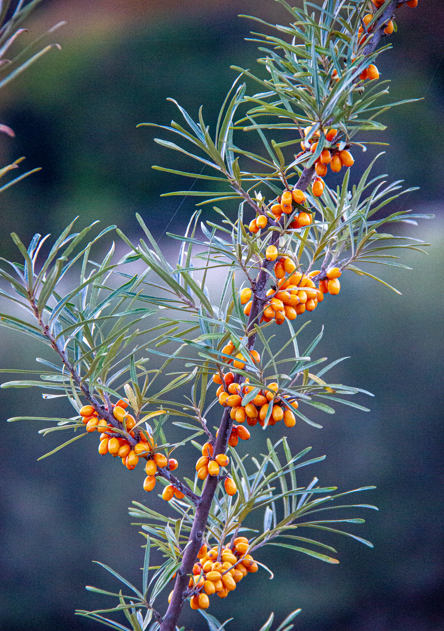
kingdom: Plantae
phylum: Tracheophyta
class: Magnoliopsida
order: Rosales
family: Elaeagnaceae
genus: Hippophae
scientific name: Hippophae rhamnoides
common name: Sea-buckthorn
